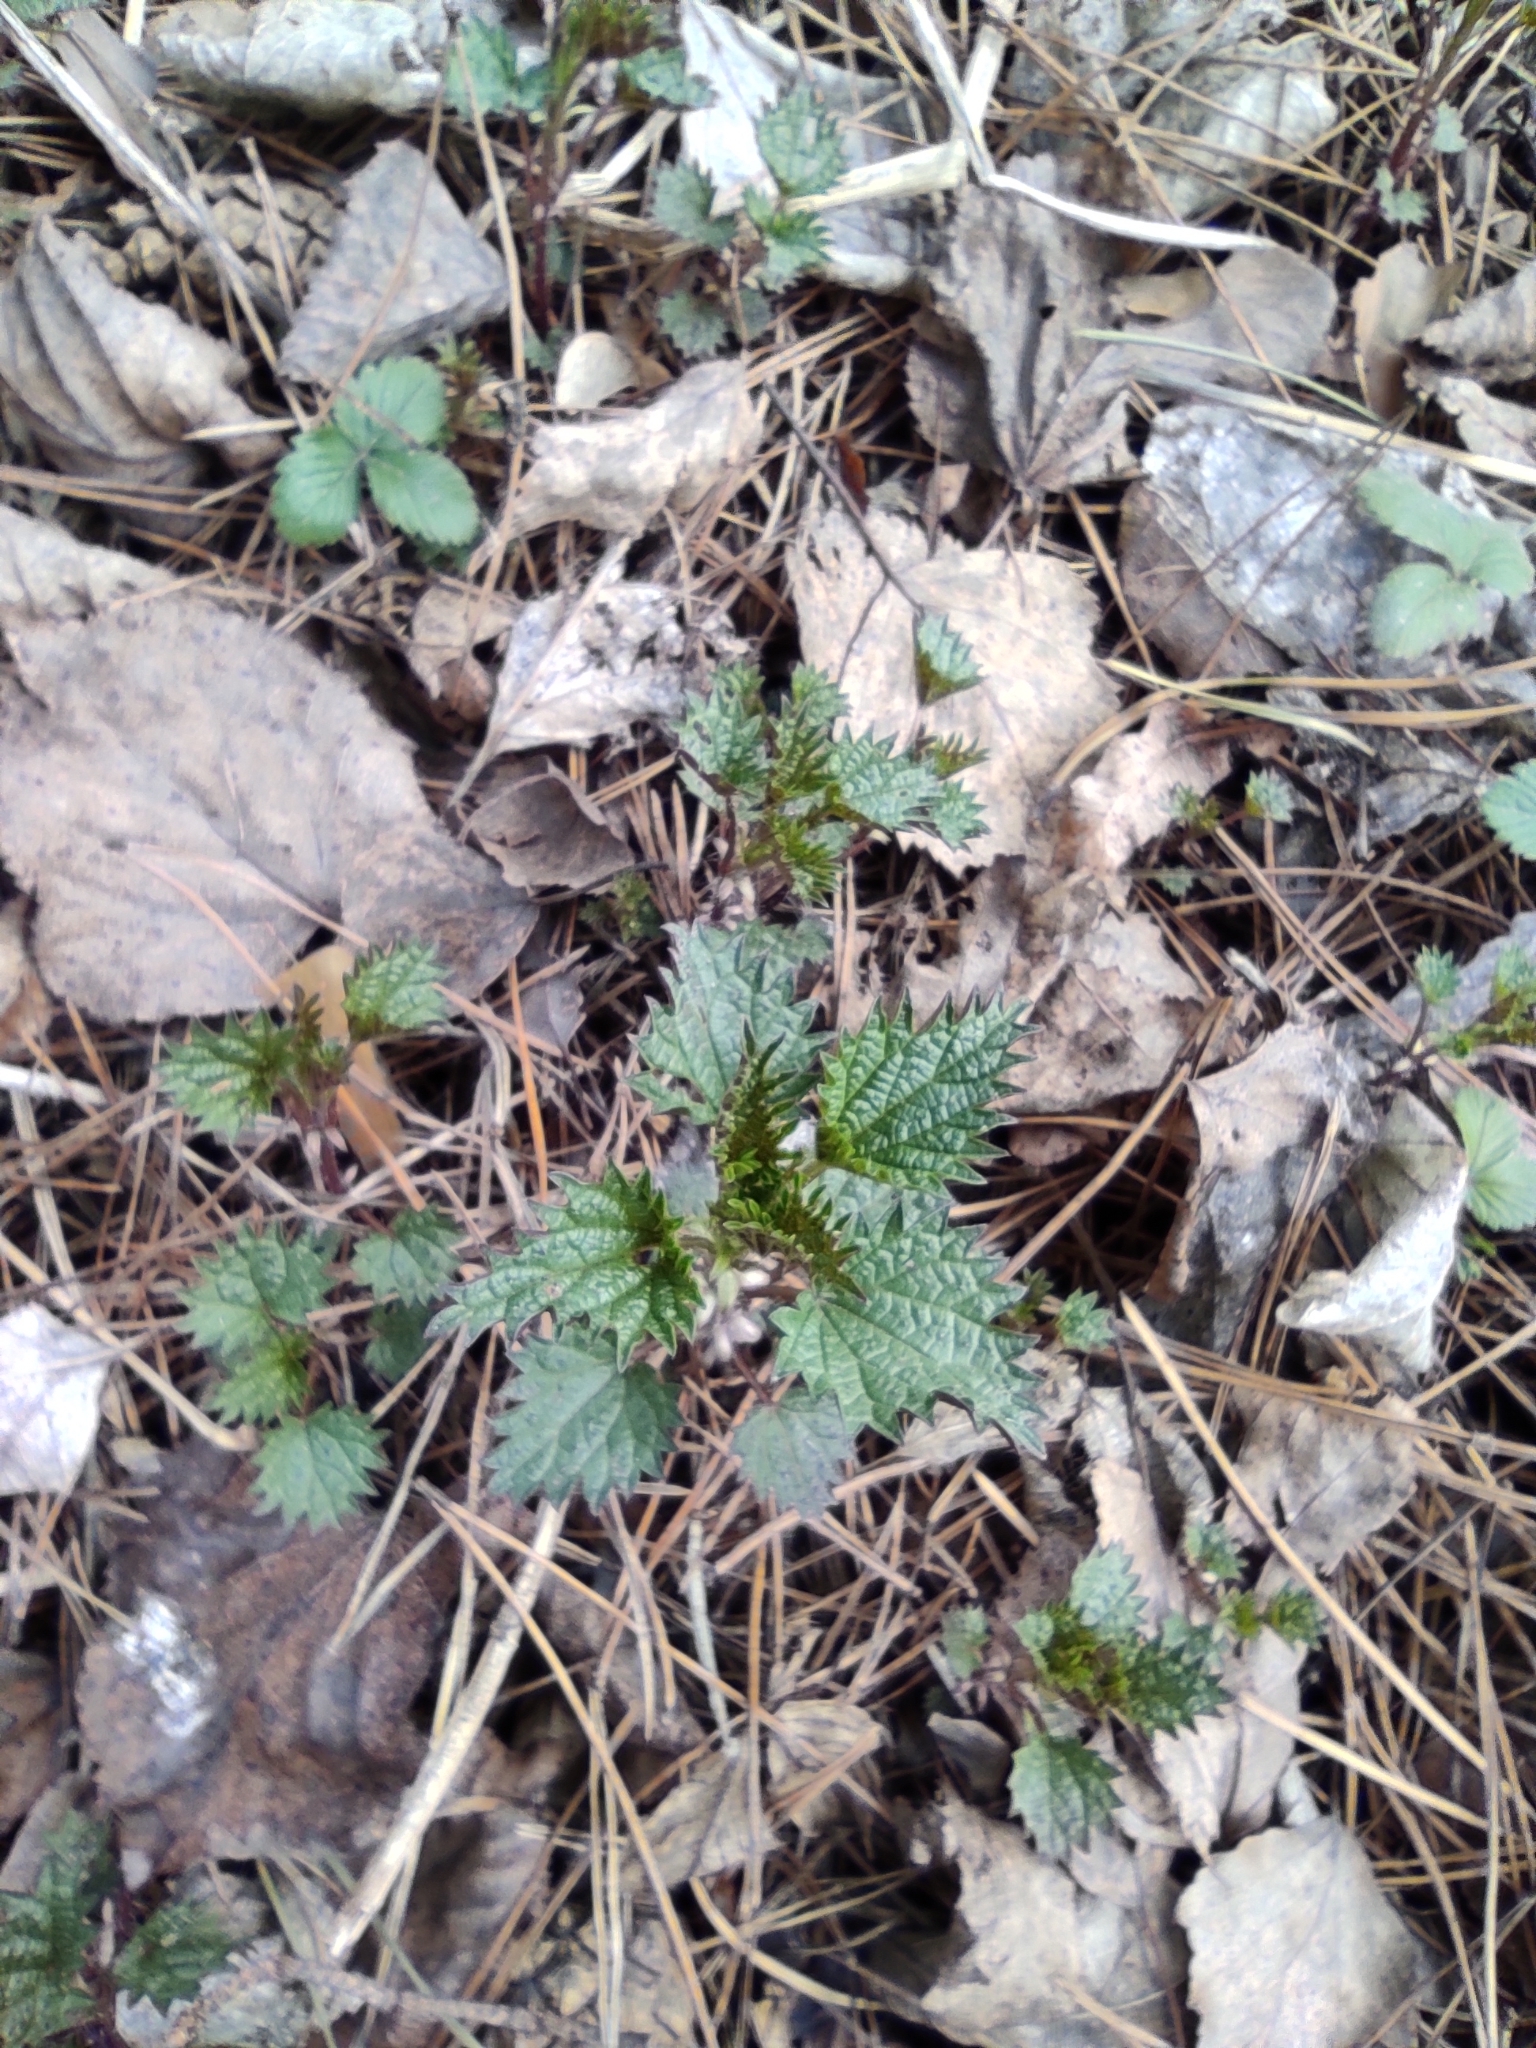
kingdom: Plantae
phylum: Tracheophyta
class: Magnoliopsida
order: Rosales
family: Urticaceae
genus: Urtica
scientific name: Urtica dioica
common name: Common nettle
